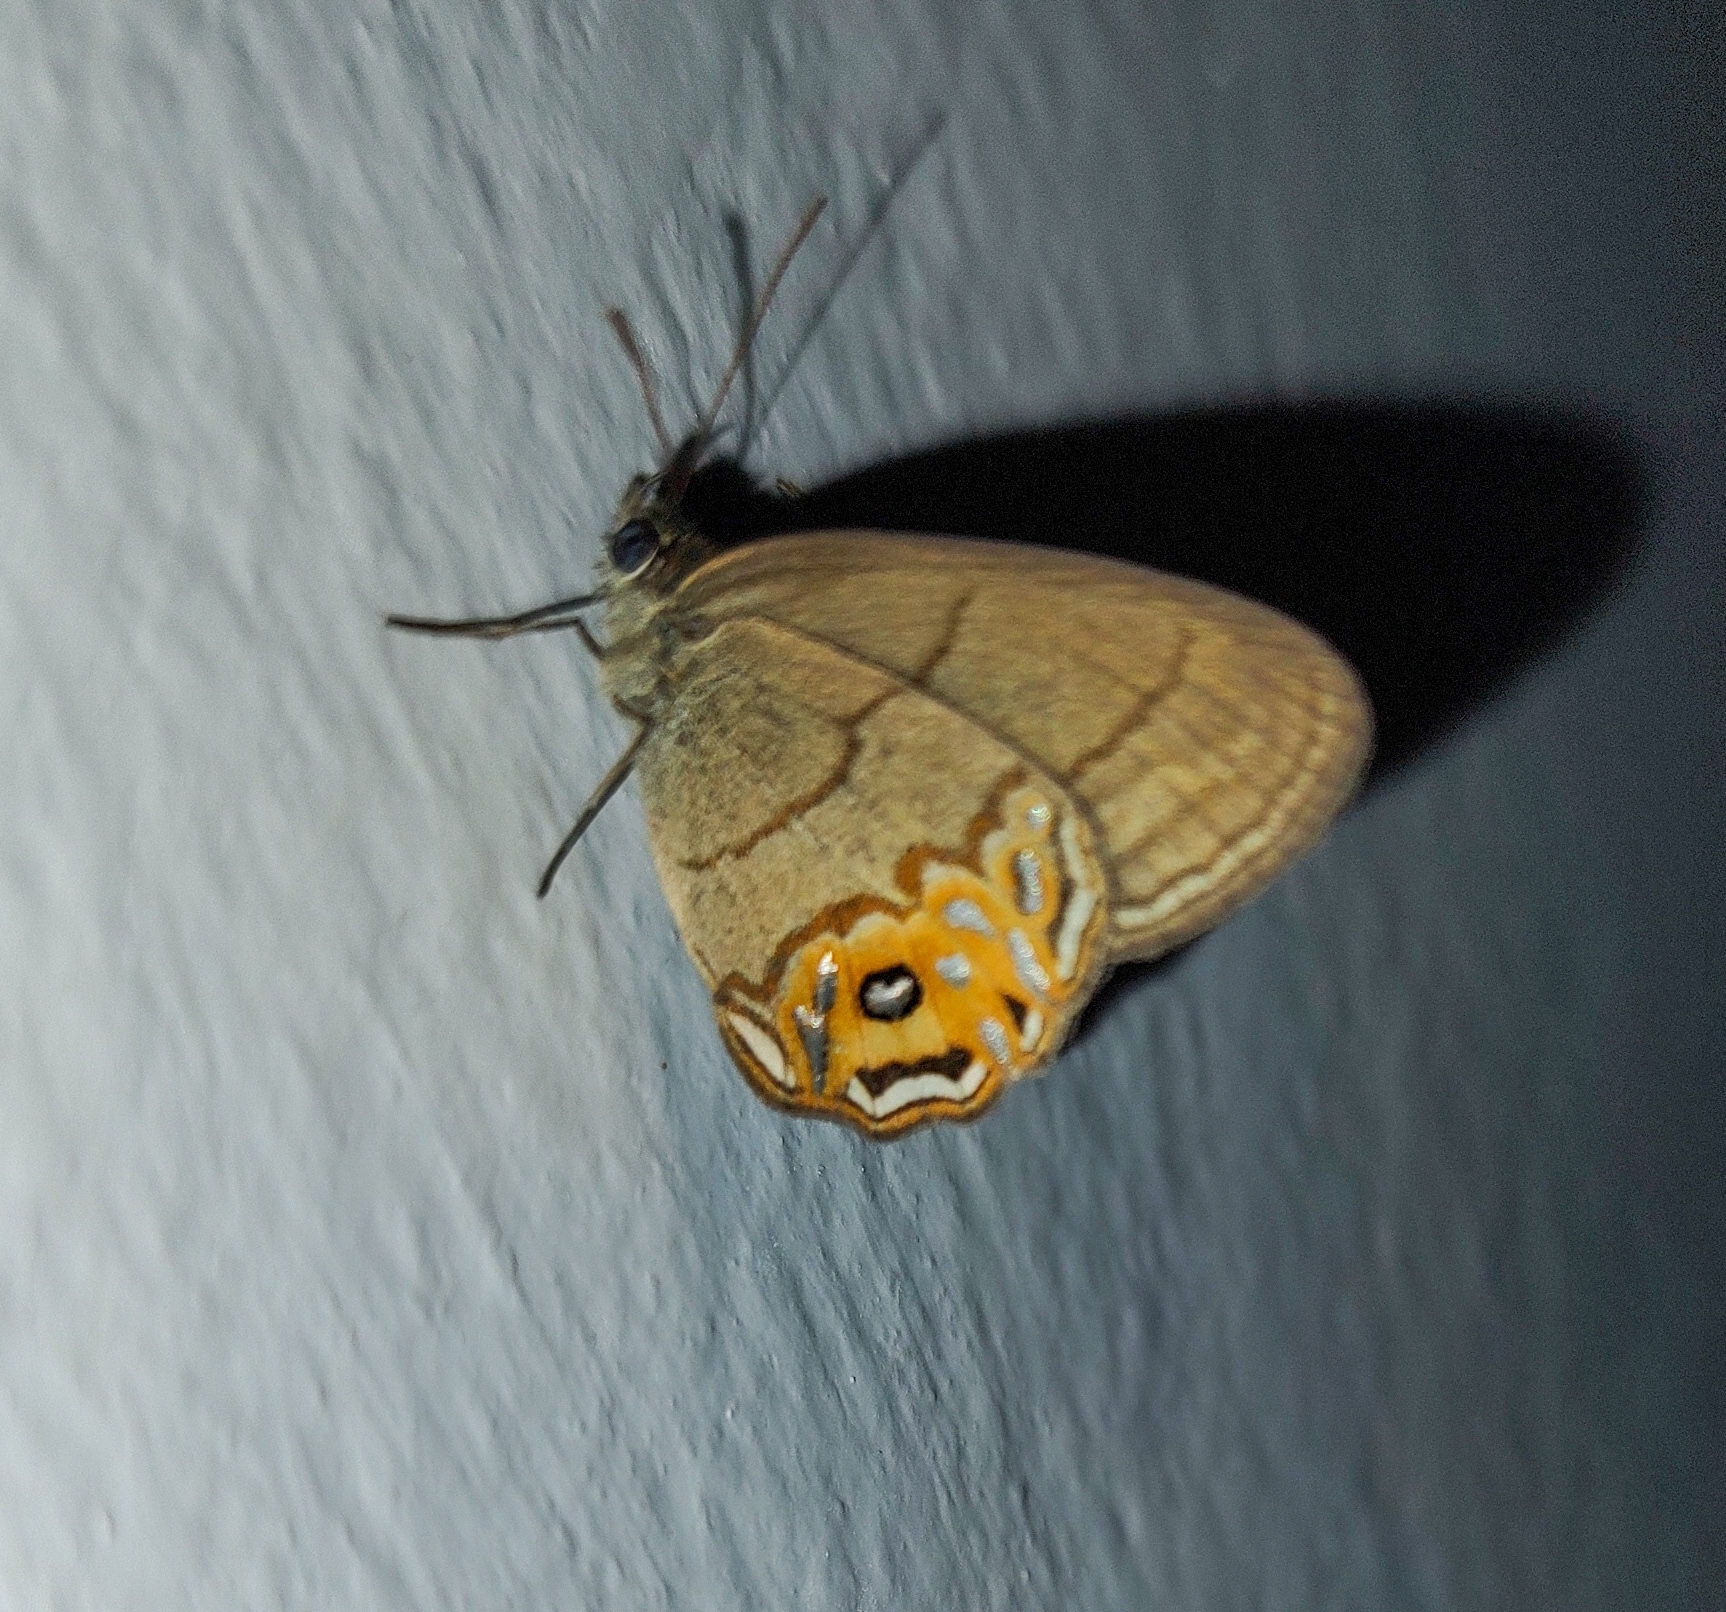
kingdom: Animalia
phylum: Arthropoda
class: Insecta
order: Lepidoptera
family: Nymphalidae
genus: Splendeuptychia
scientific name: Splendeuptychia libitina
